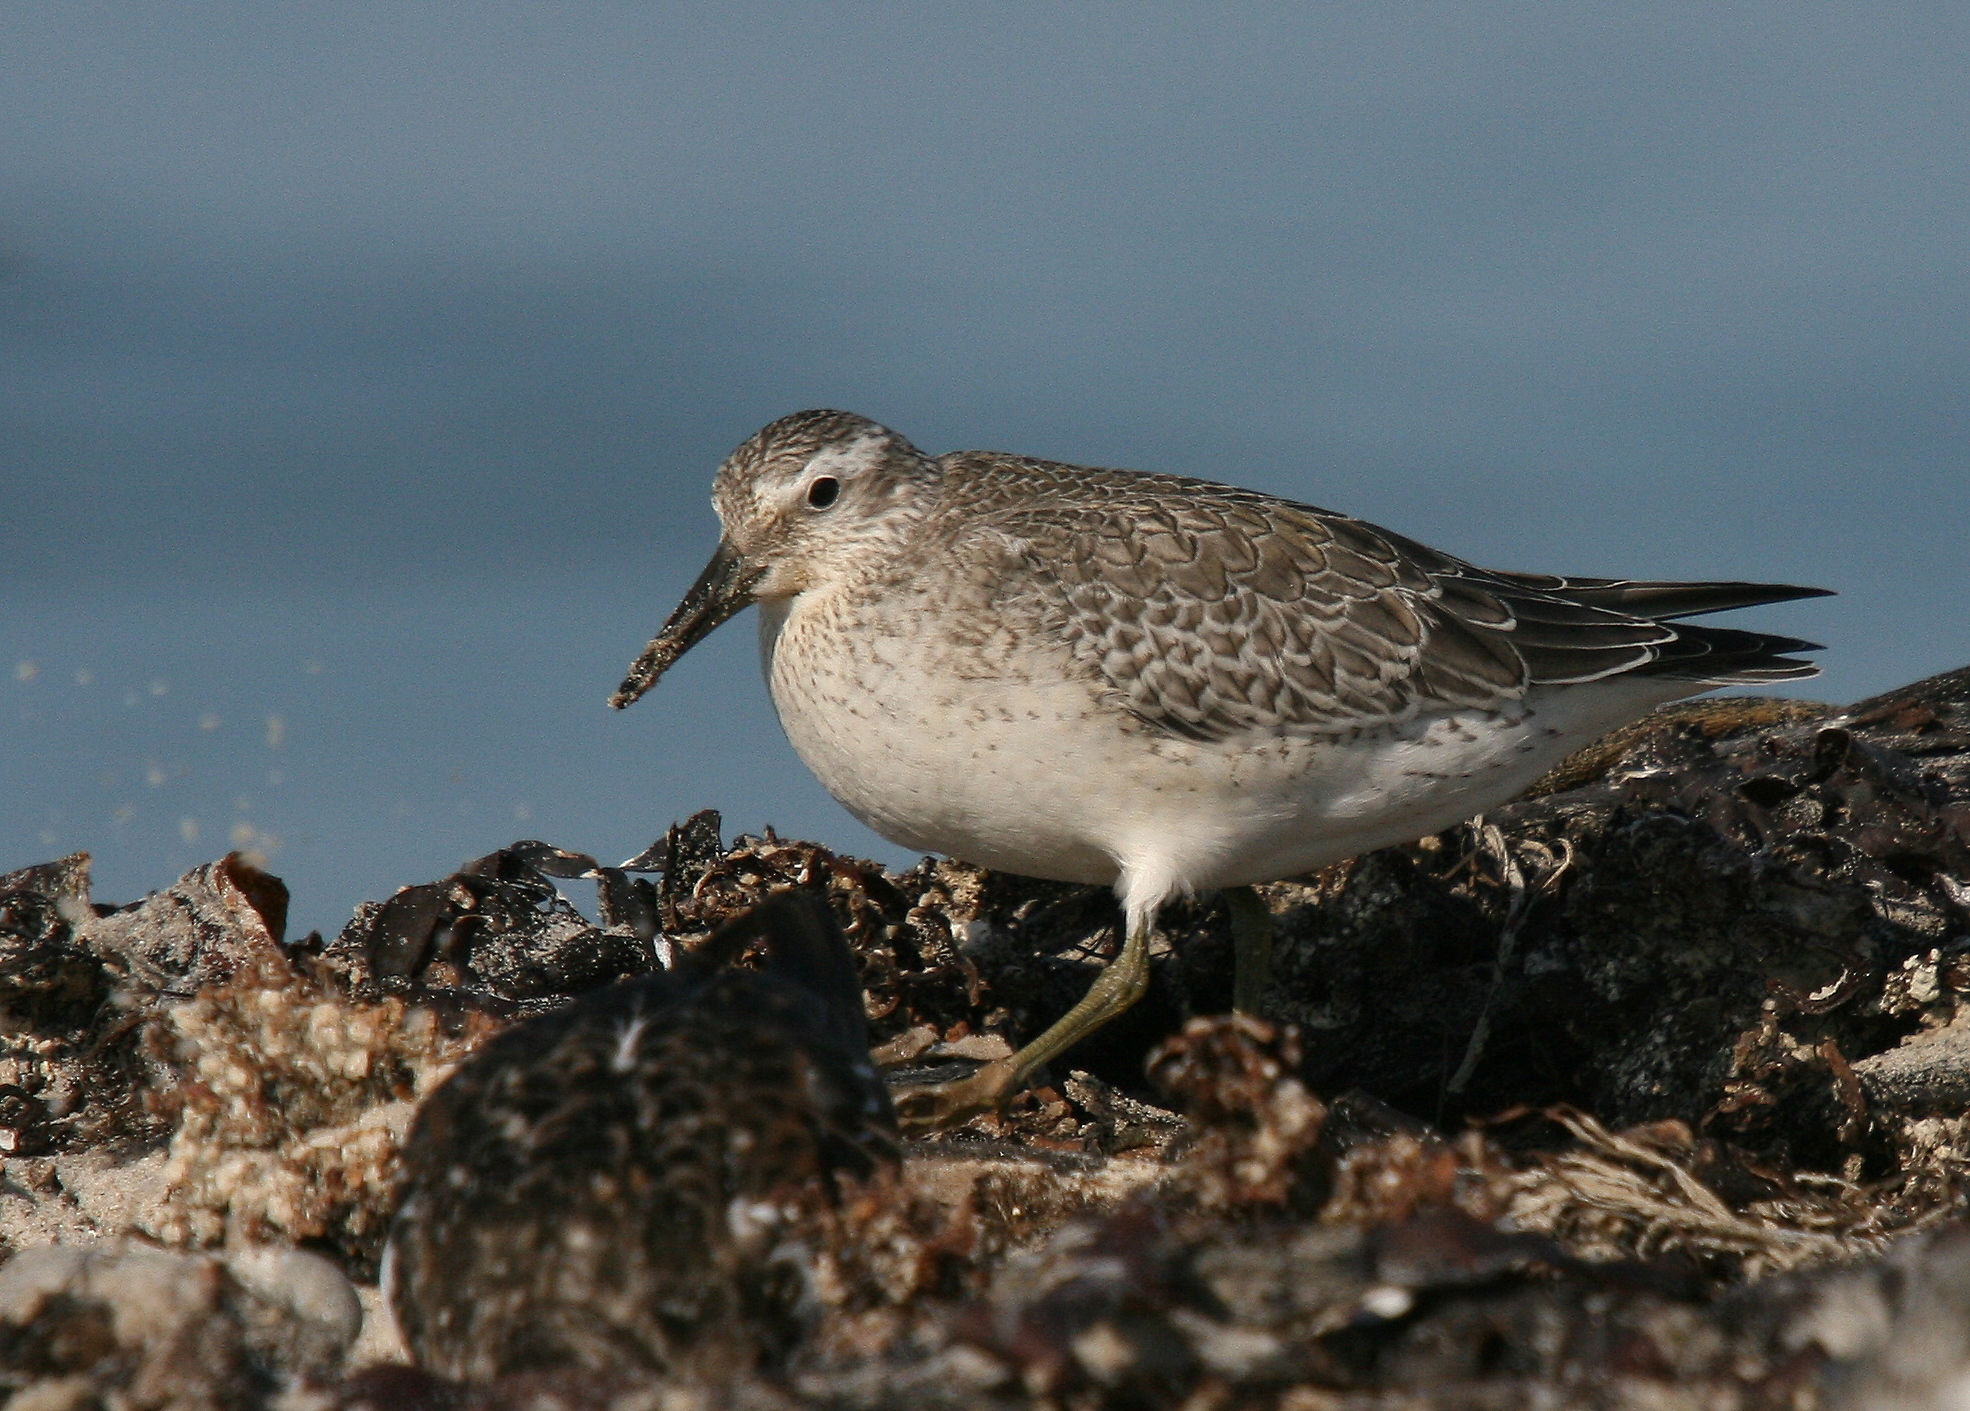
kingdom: Animalia
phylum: Chordata
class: Aves
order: Charadriiformes
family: Scolopacidae
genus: Calidris
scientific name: Calidris canutus
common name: Red knot
